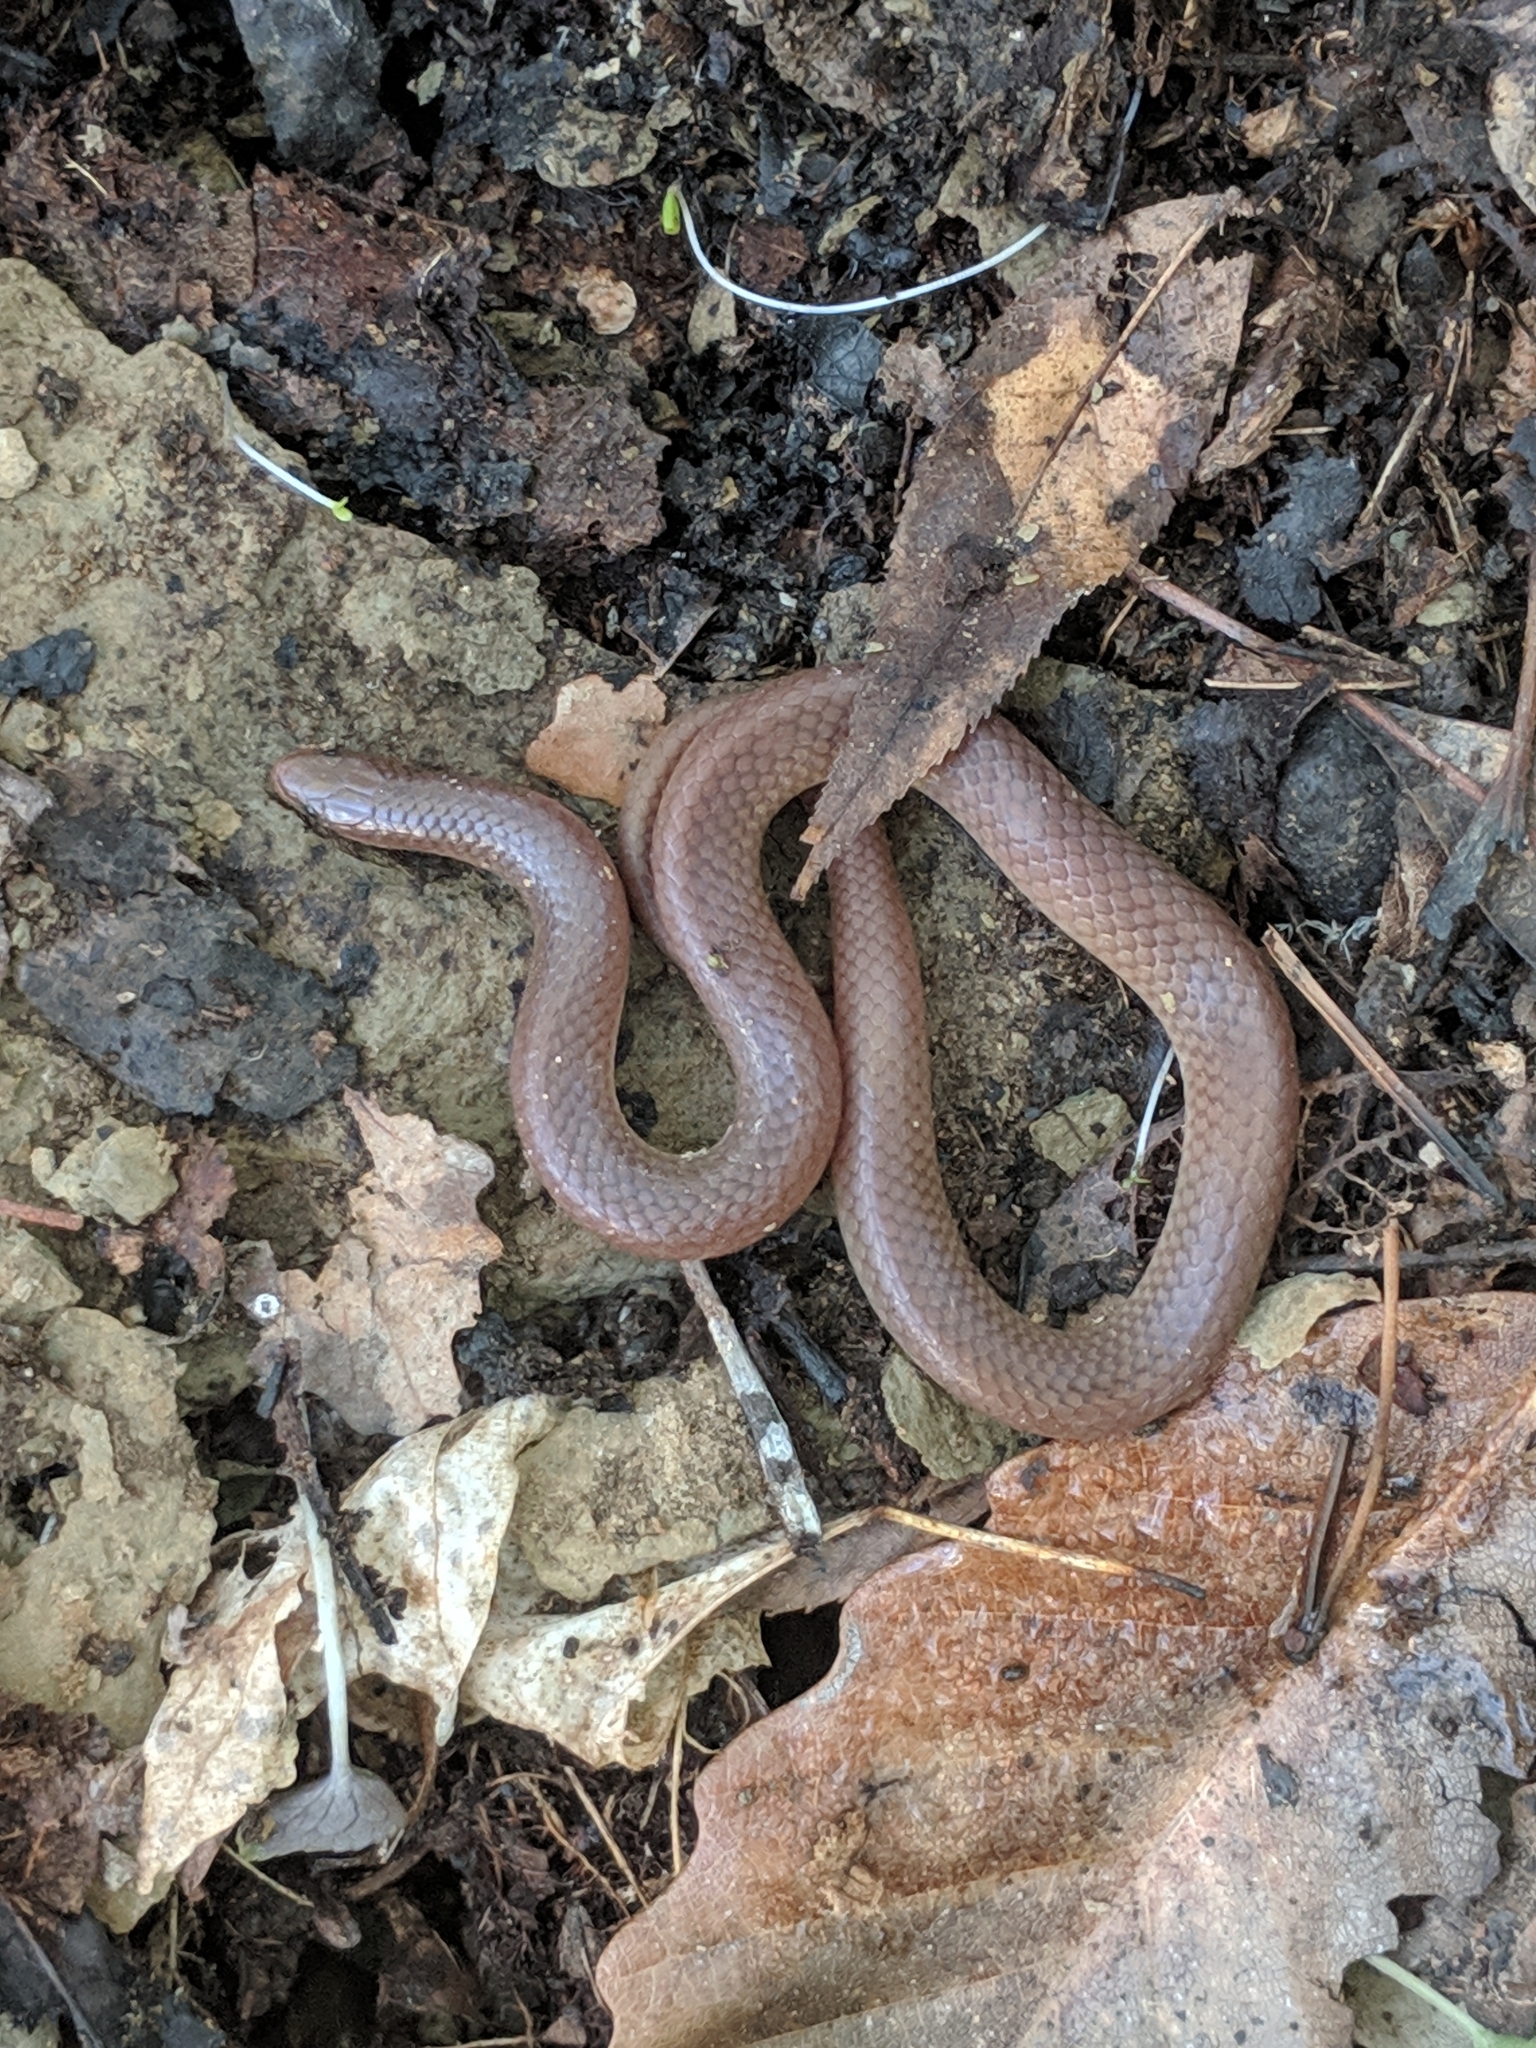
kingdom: Animalia
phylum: Chordata
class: Squamata
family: Colubridae
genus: Carphophis
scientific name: Carphophis amoenus
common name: Eastern worm snake
